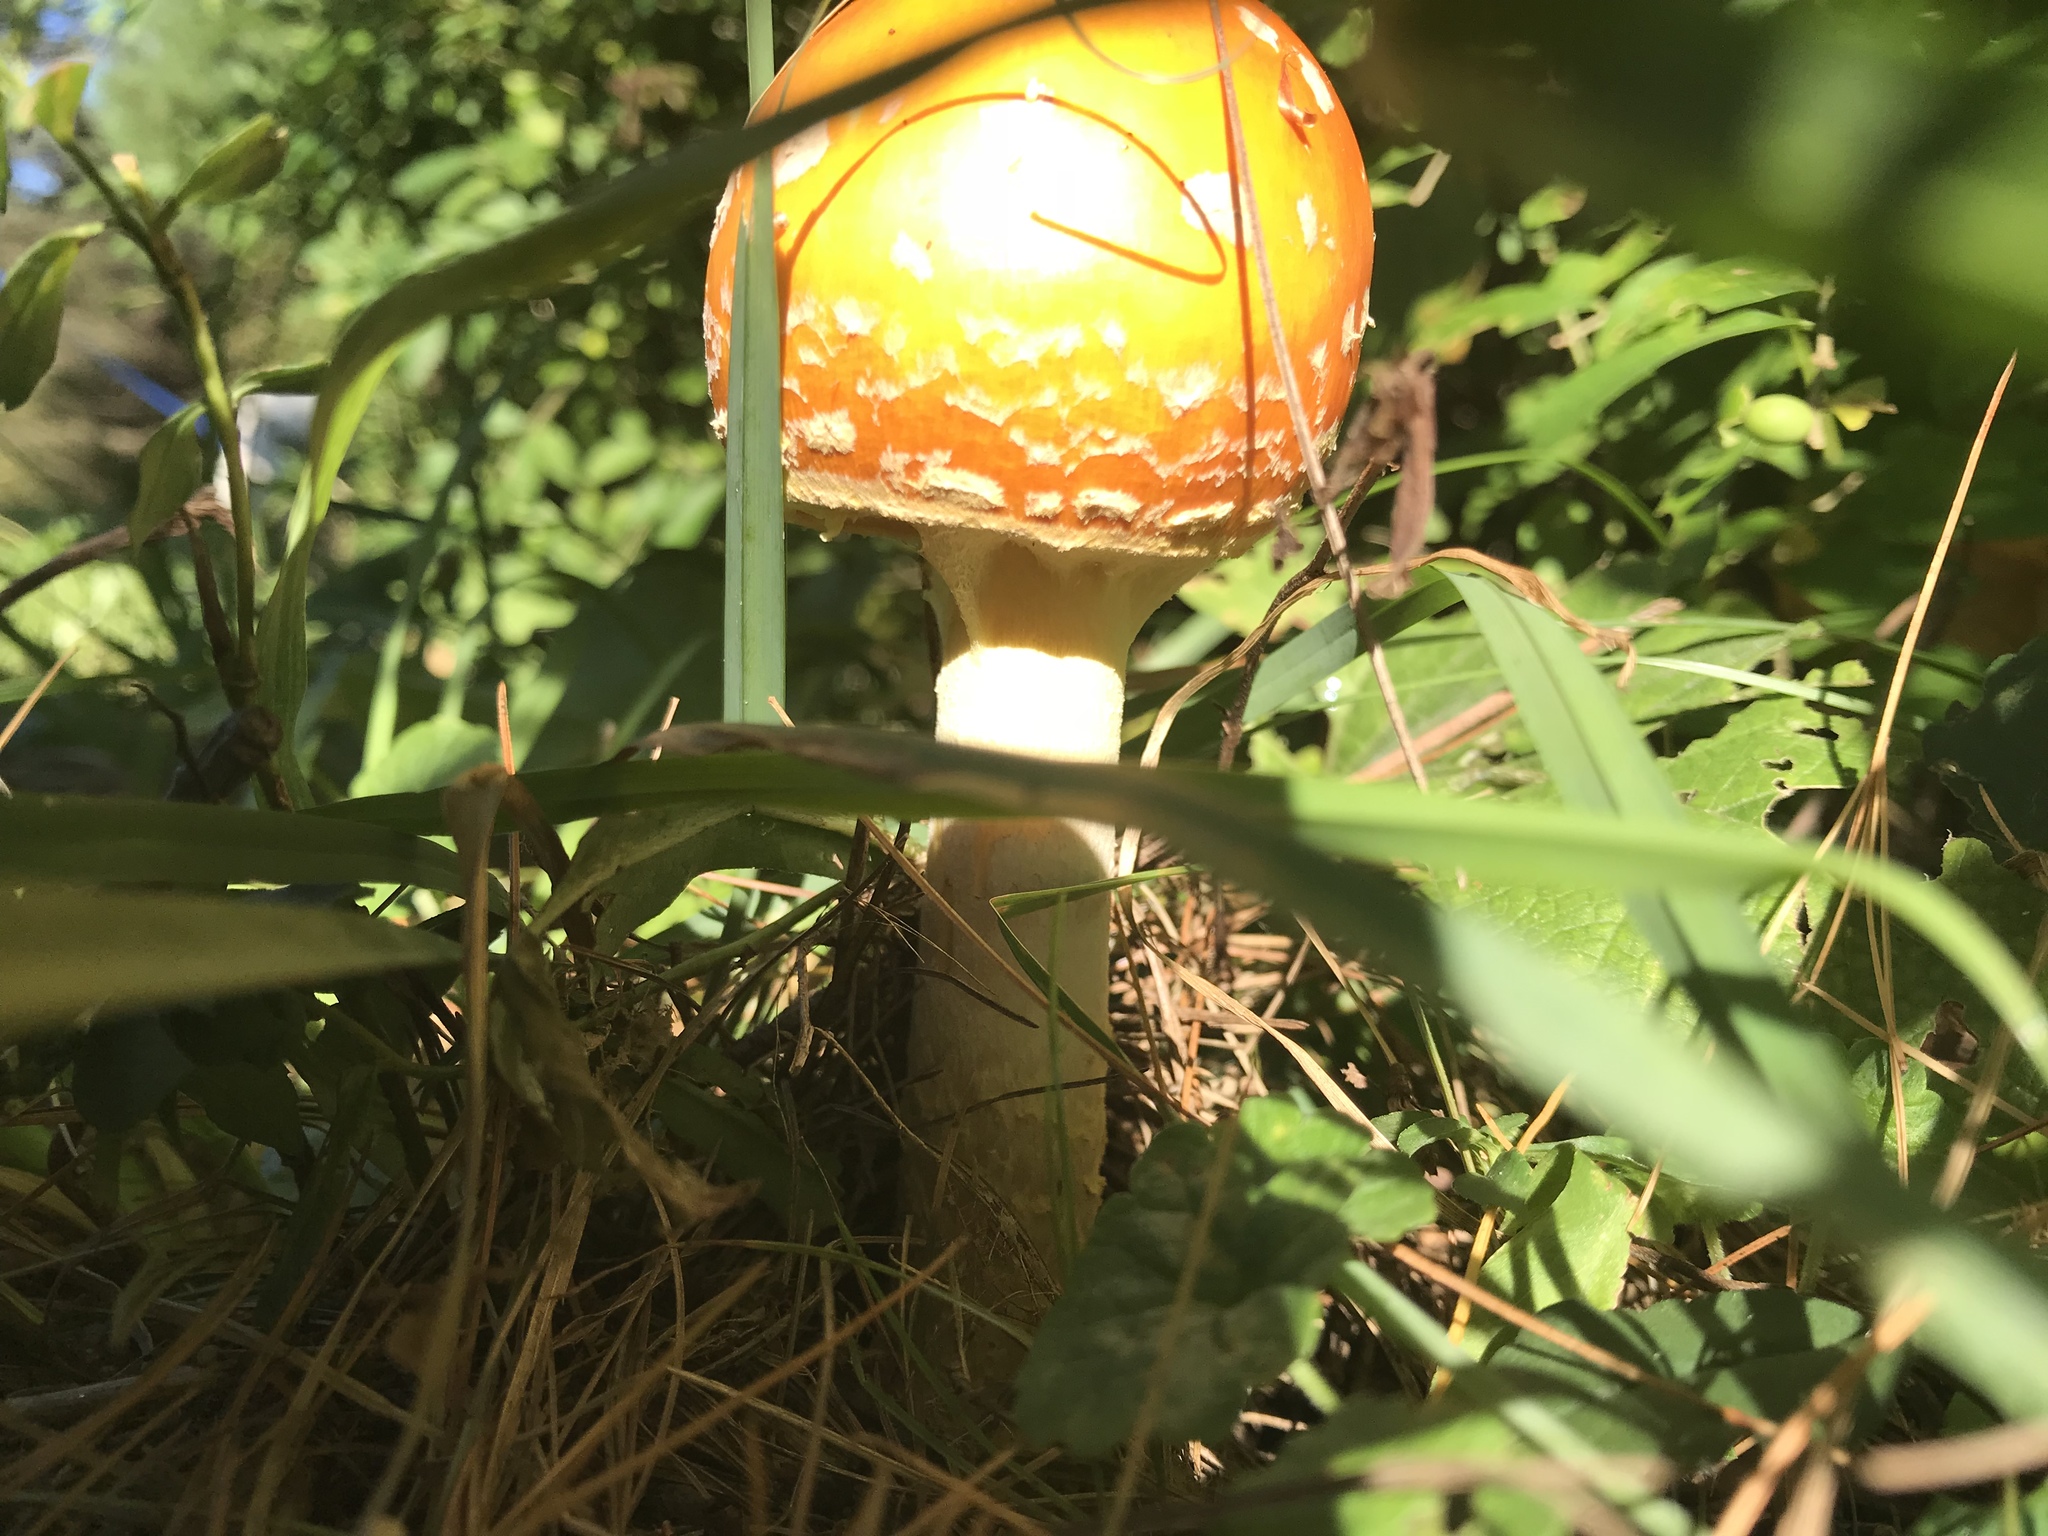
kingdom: Fungi
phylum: Basidiomycota
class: Agaricomycetes
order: Agaricales
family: Amanitaceae
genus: Amanita
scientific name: Amanita muscaria
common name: Fly agaric
